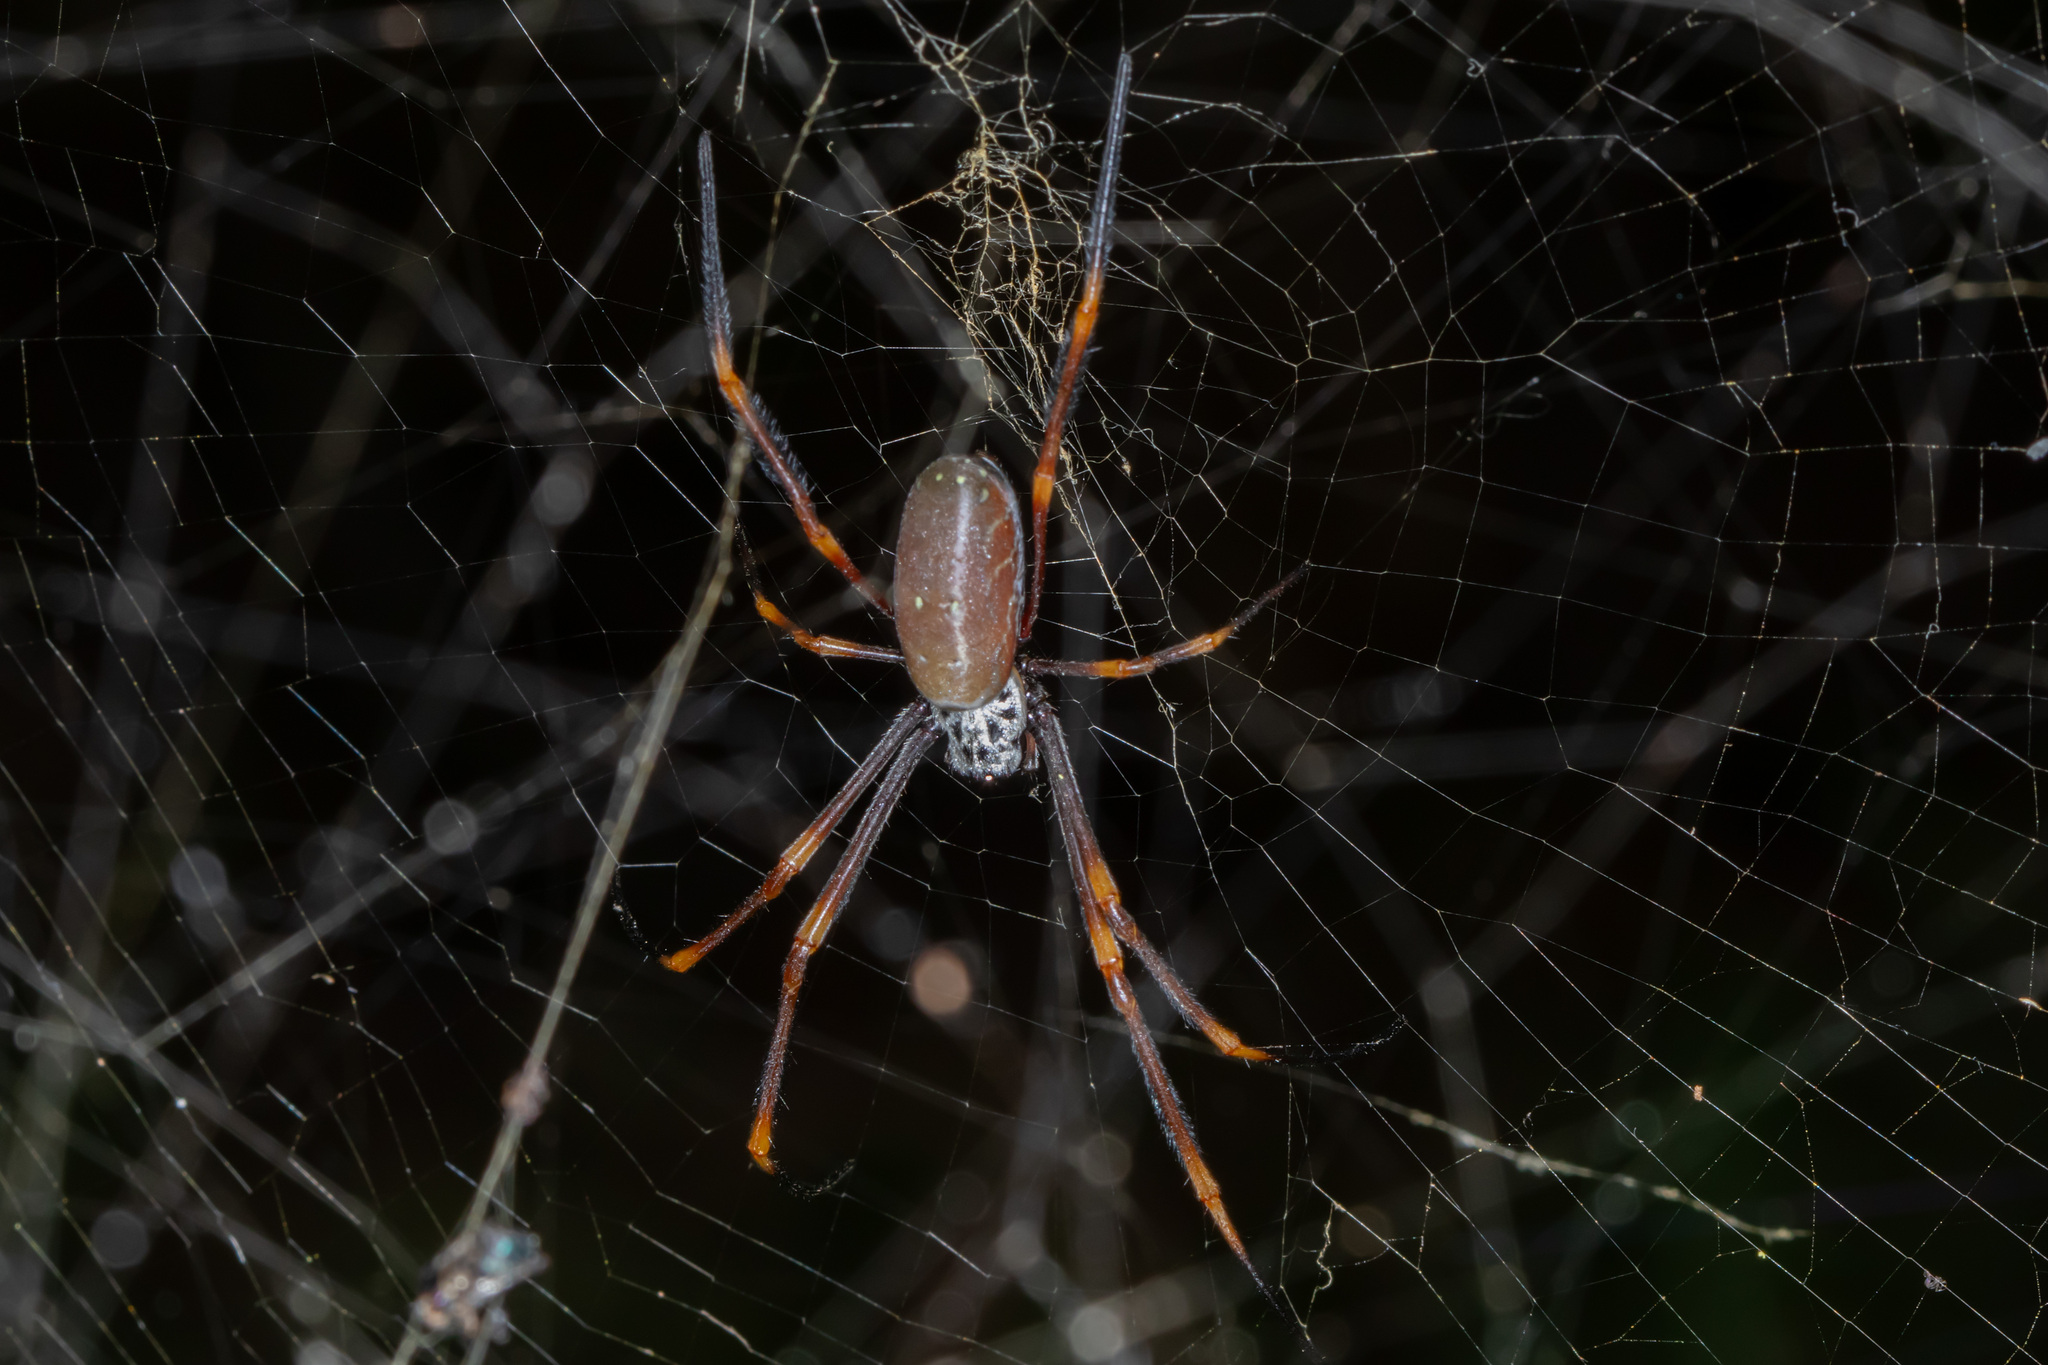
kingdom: Animalia
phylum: Arthropoda
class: Arachnida
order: Araneae
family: Araneidae
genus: Trichonephila
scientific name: Trichonephila plumipes
